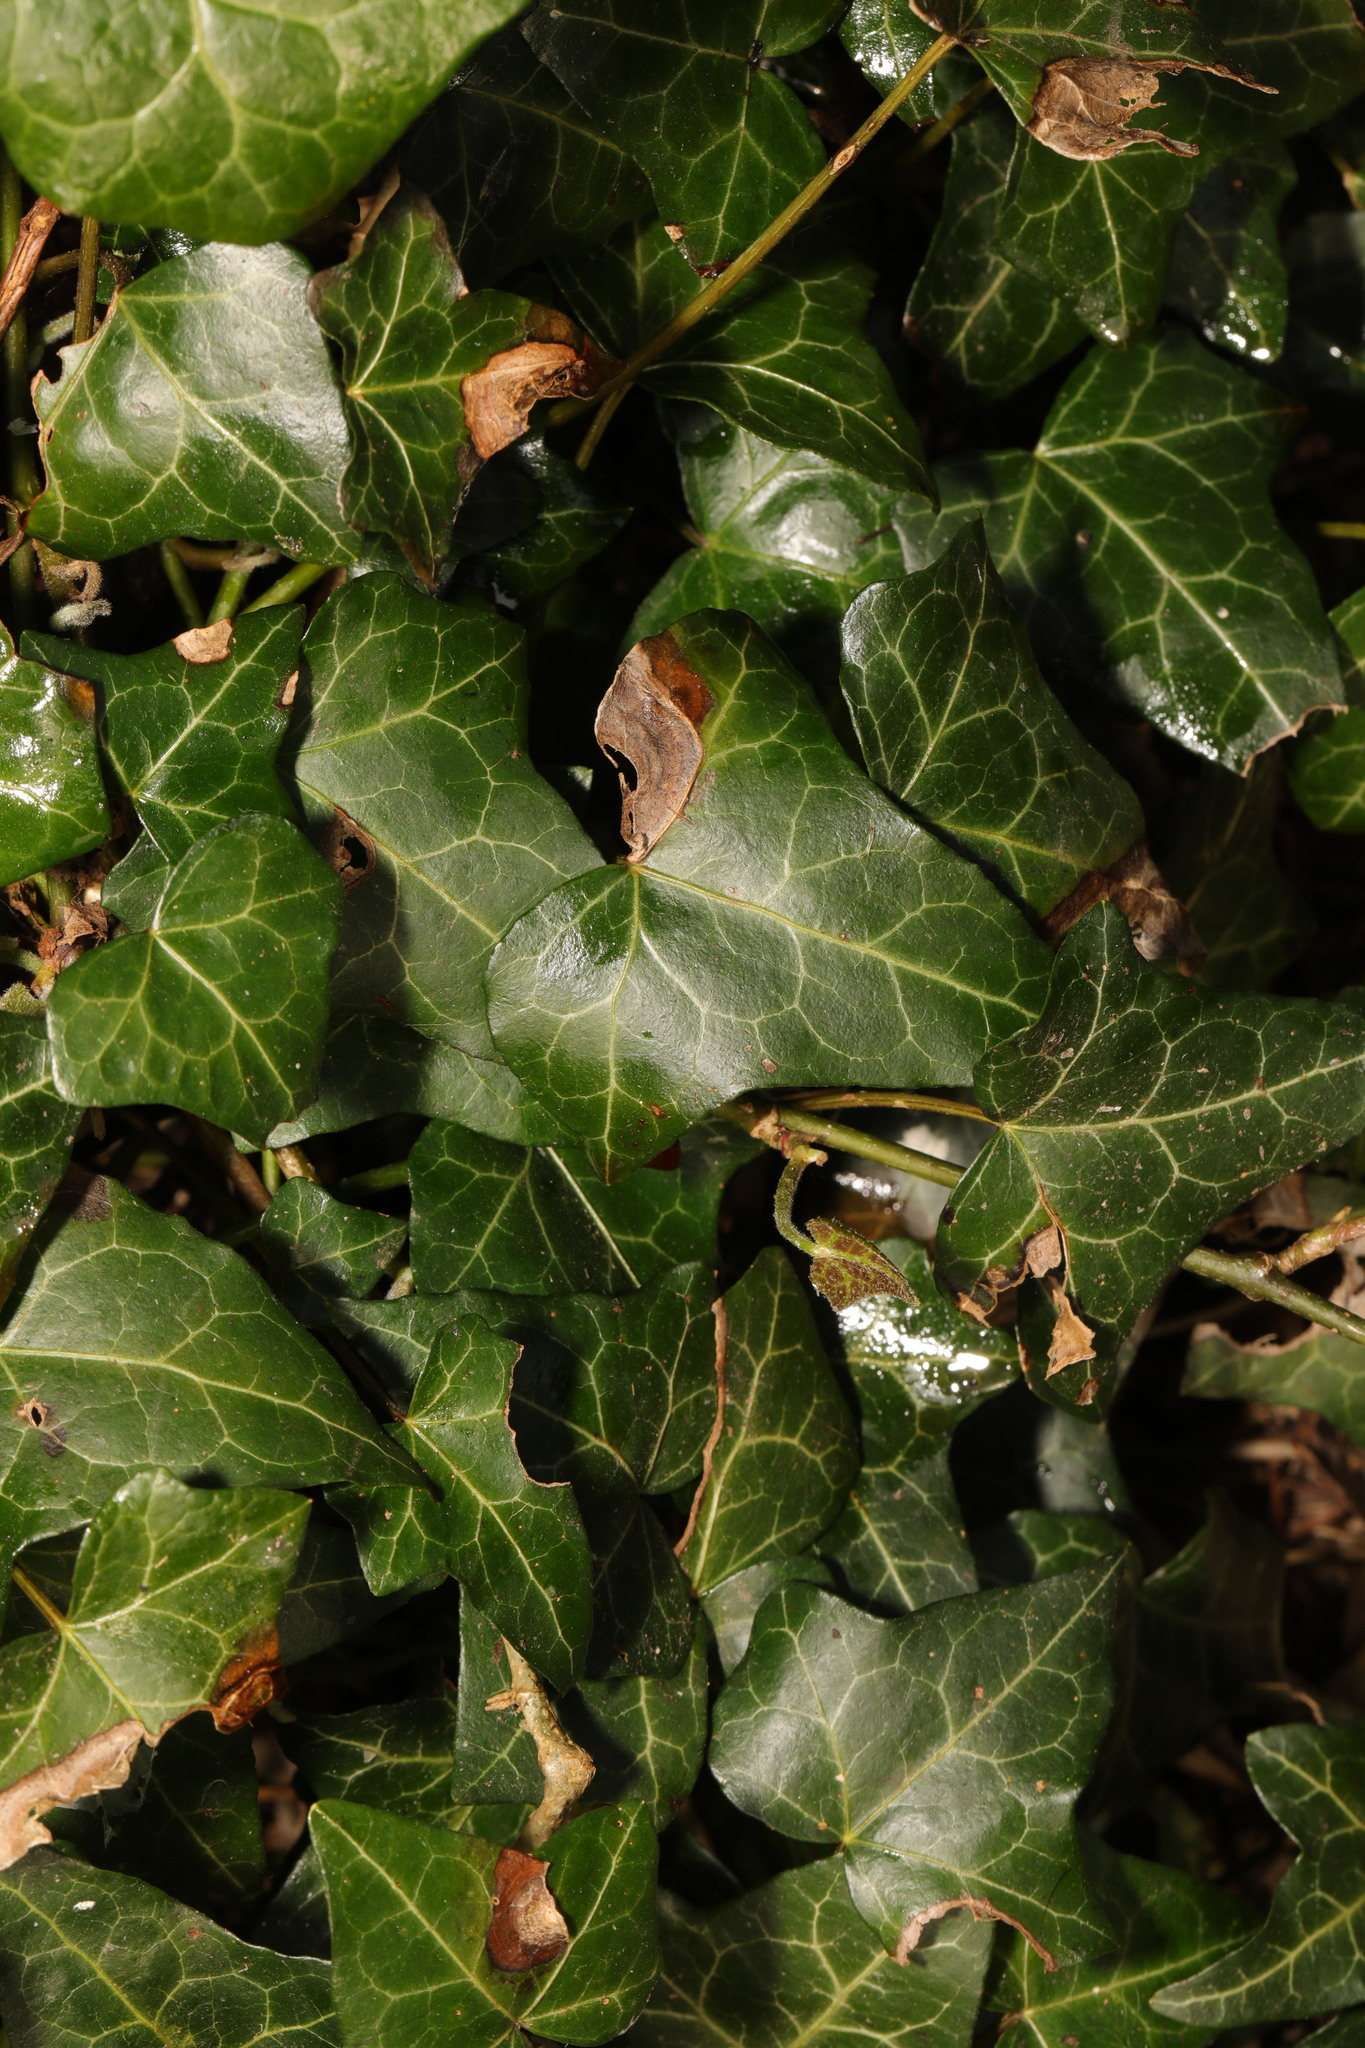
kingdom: Plantae
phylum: Tracheophyta
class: Magnoliopsida
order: Apiales
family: Araliaceae
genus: Hedera
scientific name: Hedera helix
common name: Ivy
